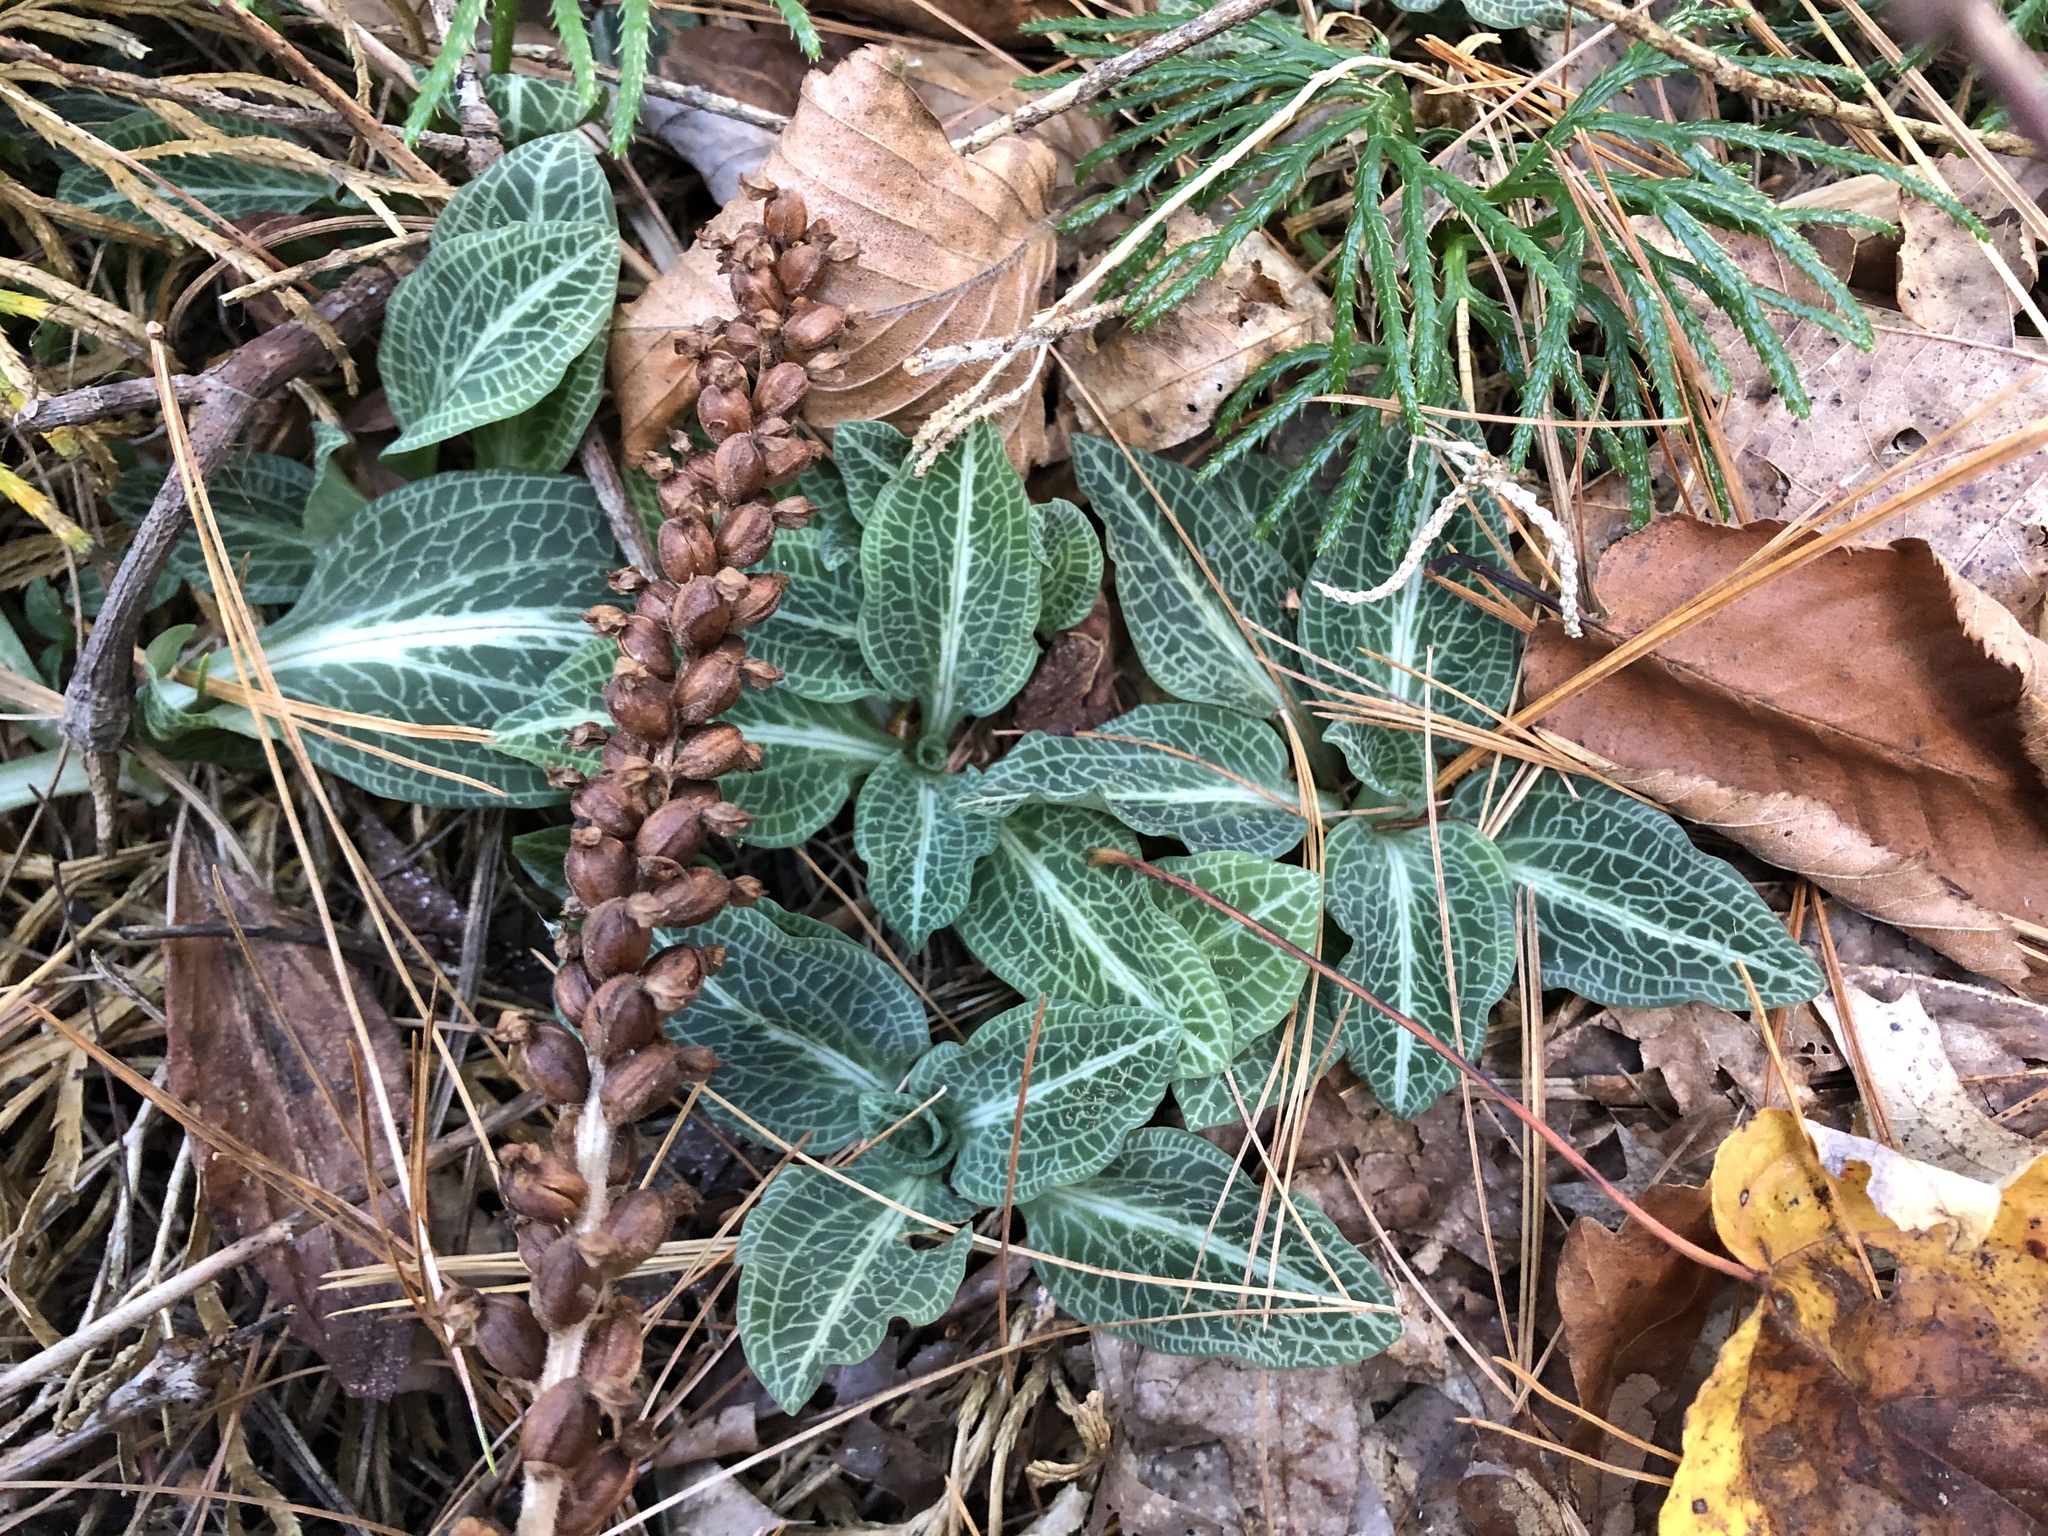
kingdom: Plantae
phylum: Tracheophyta
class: Liliopsida
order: Asparagales
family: Orchidaceae
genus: Goodyera
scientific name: Goodyera pubescens
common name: Downy rattlesnake-plantain
